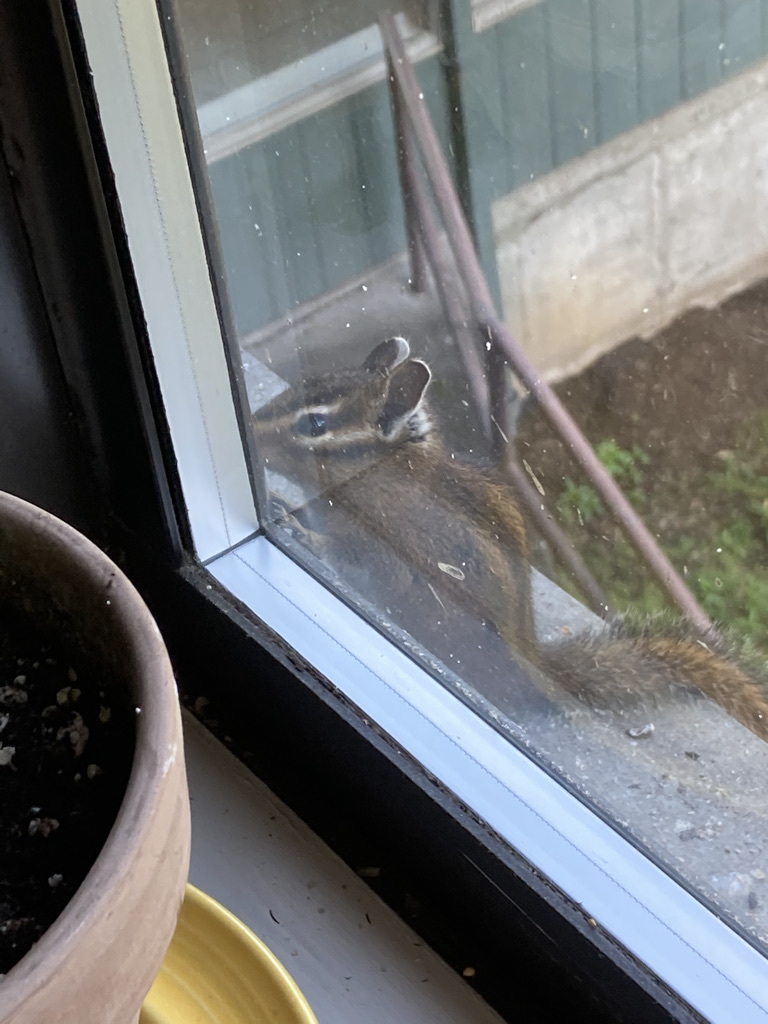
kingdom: Animalia
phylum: Chordata
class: Mammalia
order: Rodentia
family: Sciuridae
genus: Tamias
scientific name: Tamias townsendii
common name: Townsend's chipmunk
